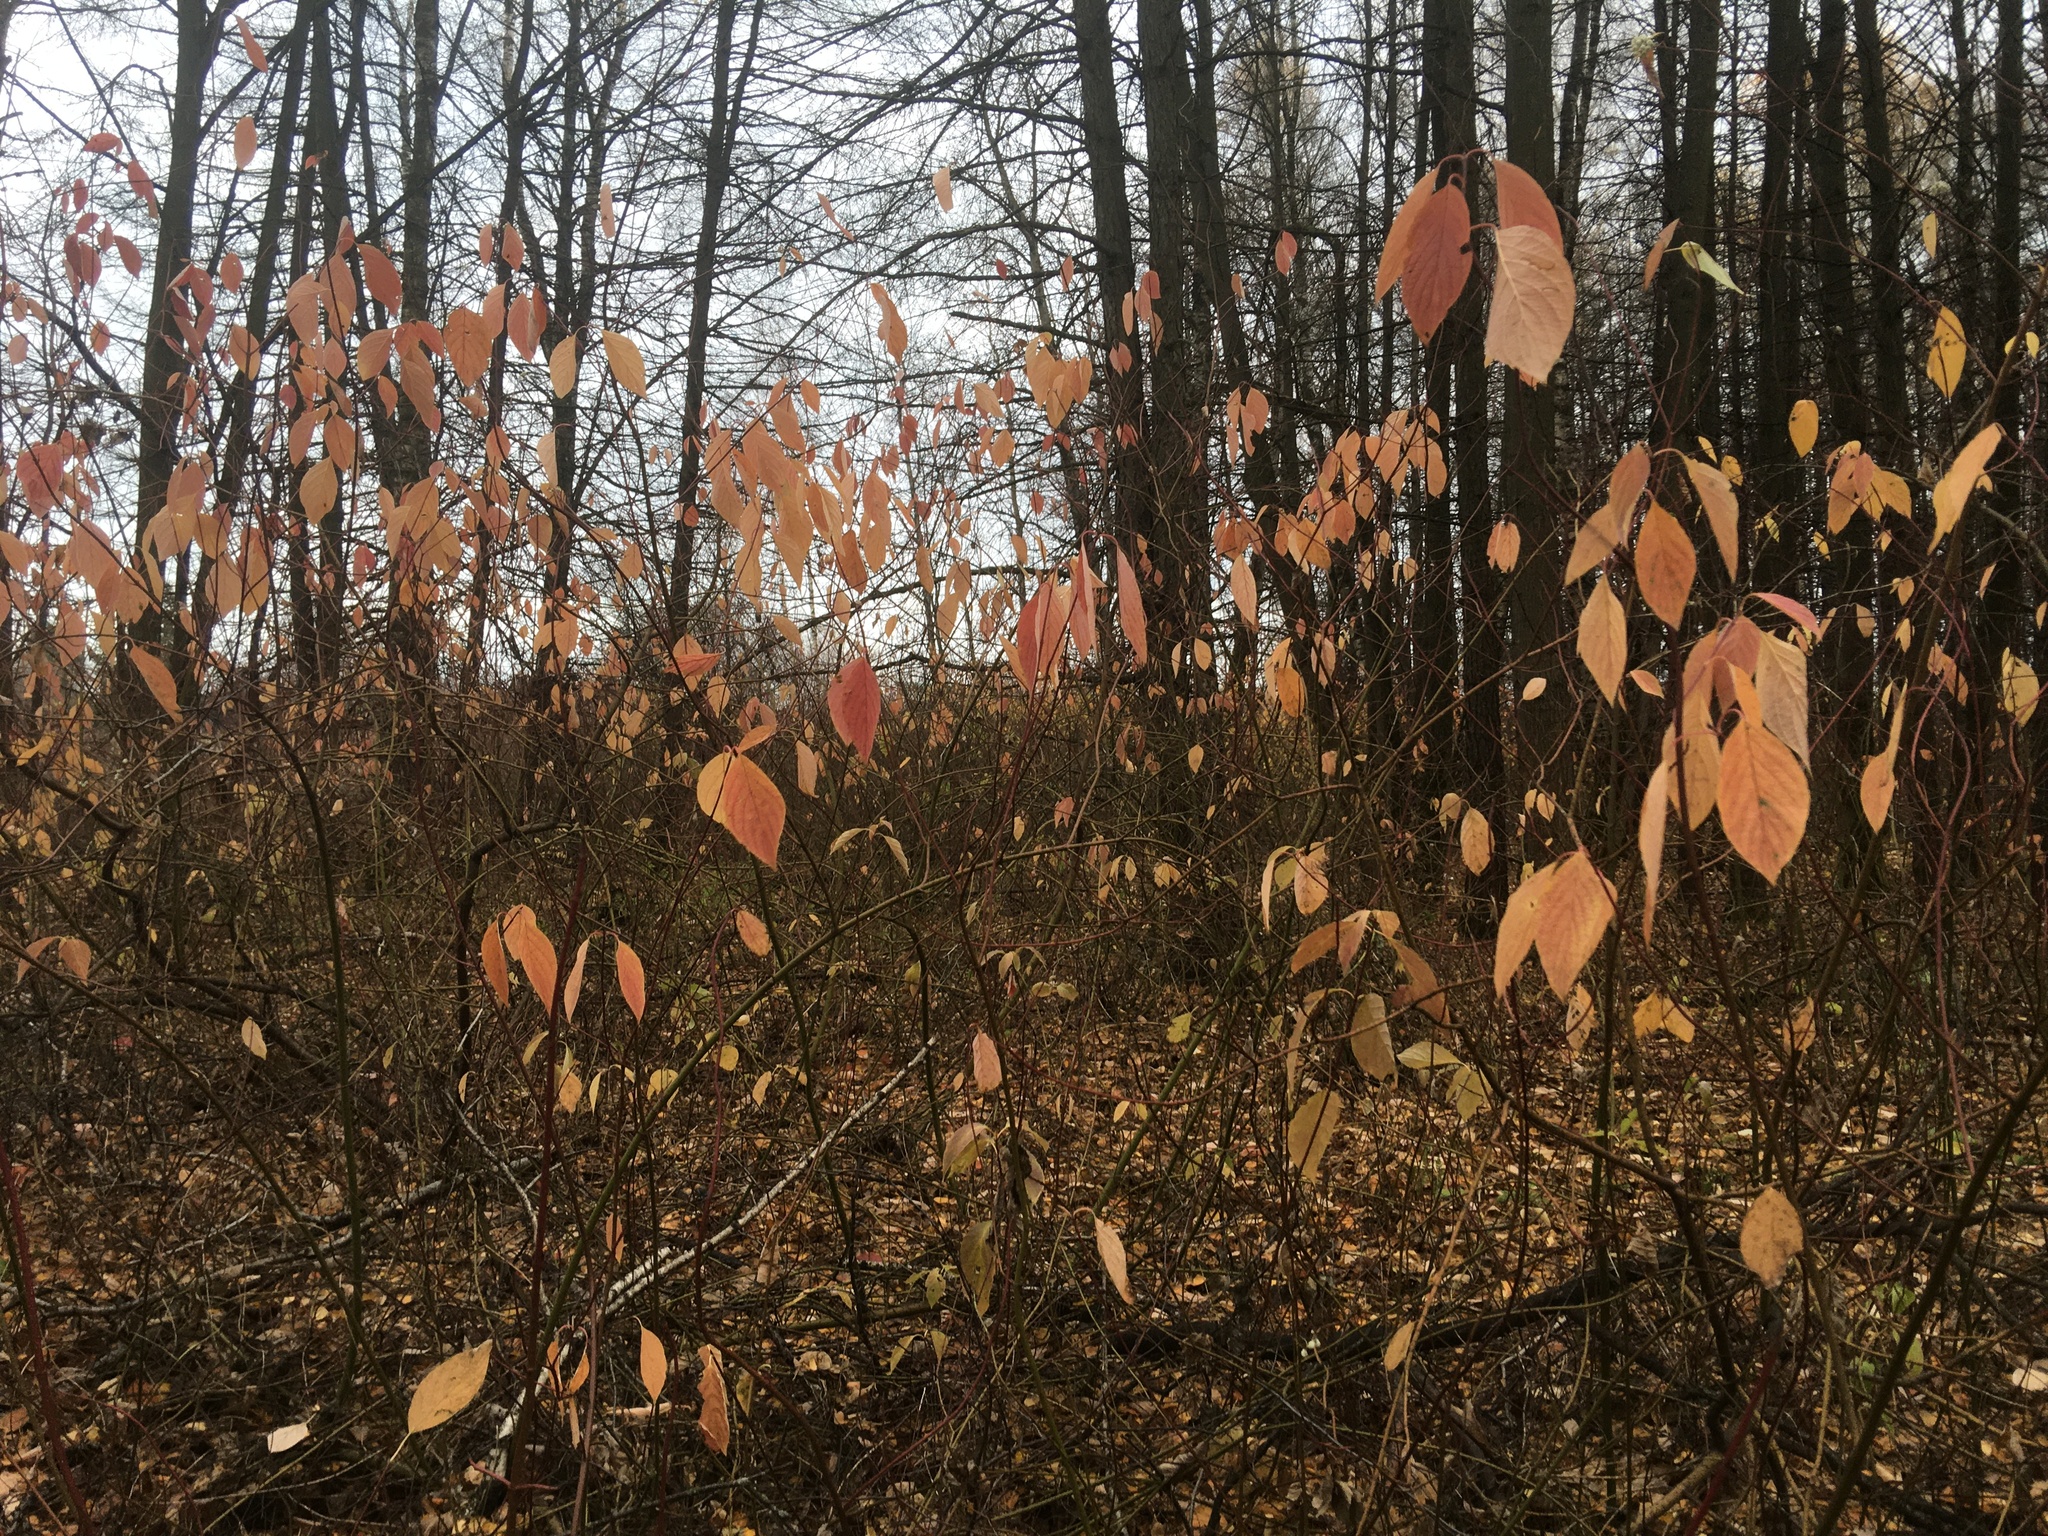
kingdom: Plantae
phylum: Tracheophyta
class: Magnoliopsida
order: Cornales
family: Cornaceae
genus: Cornus
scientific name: Cornus sericea
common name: Red-osier dogwood
